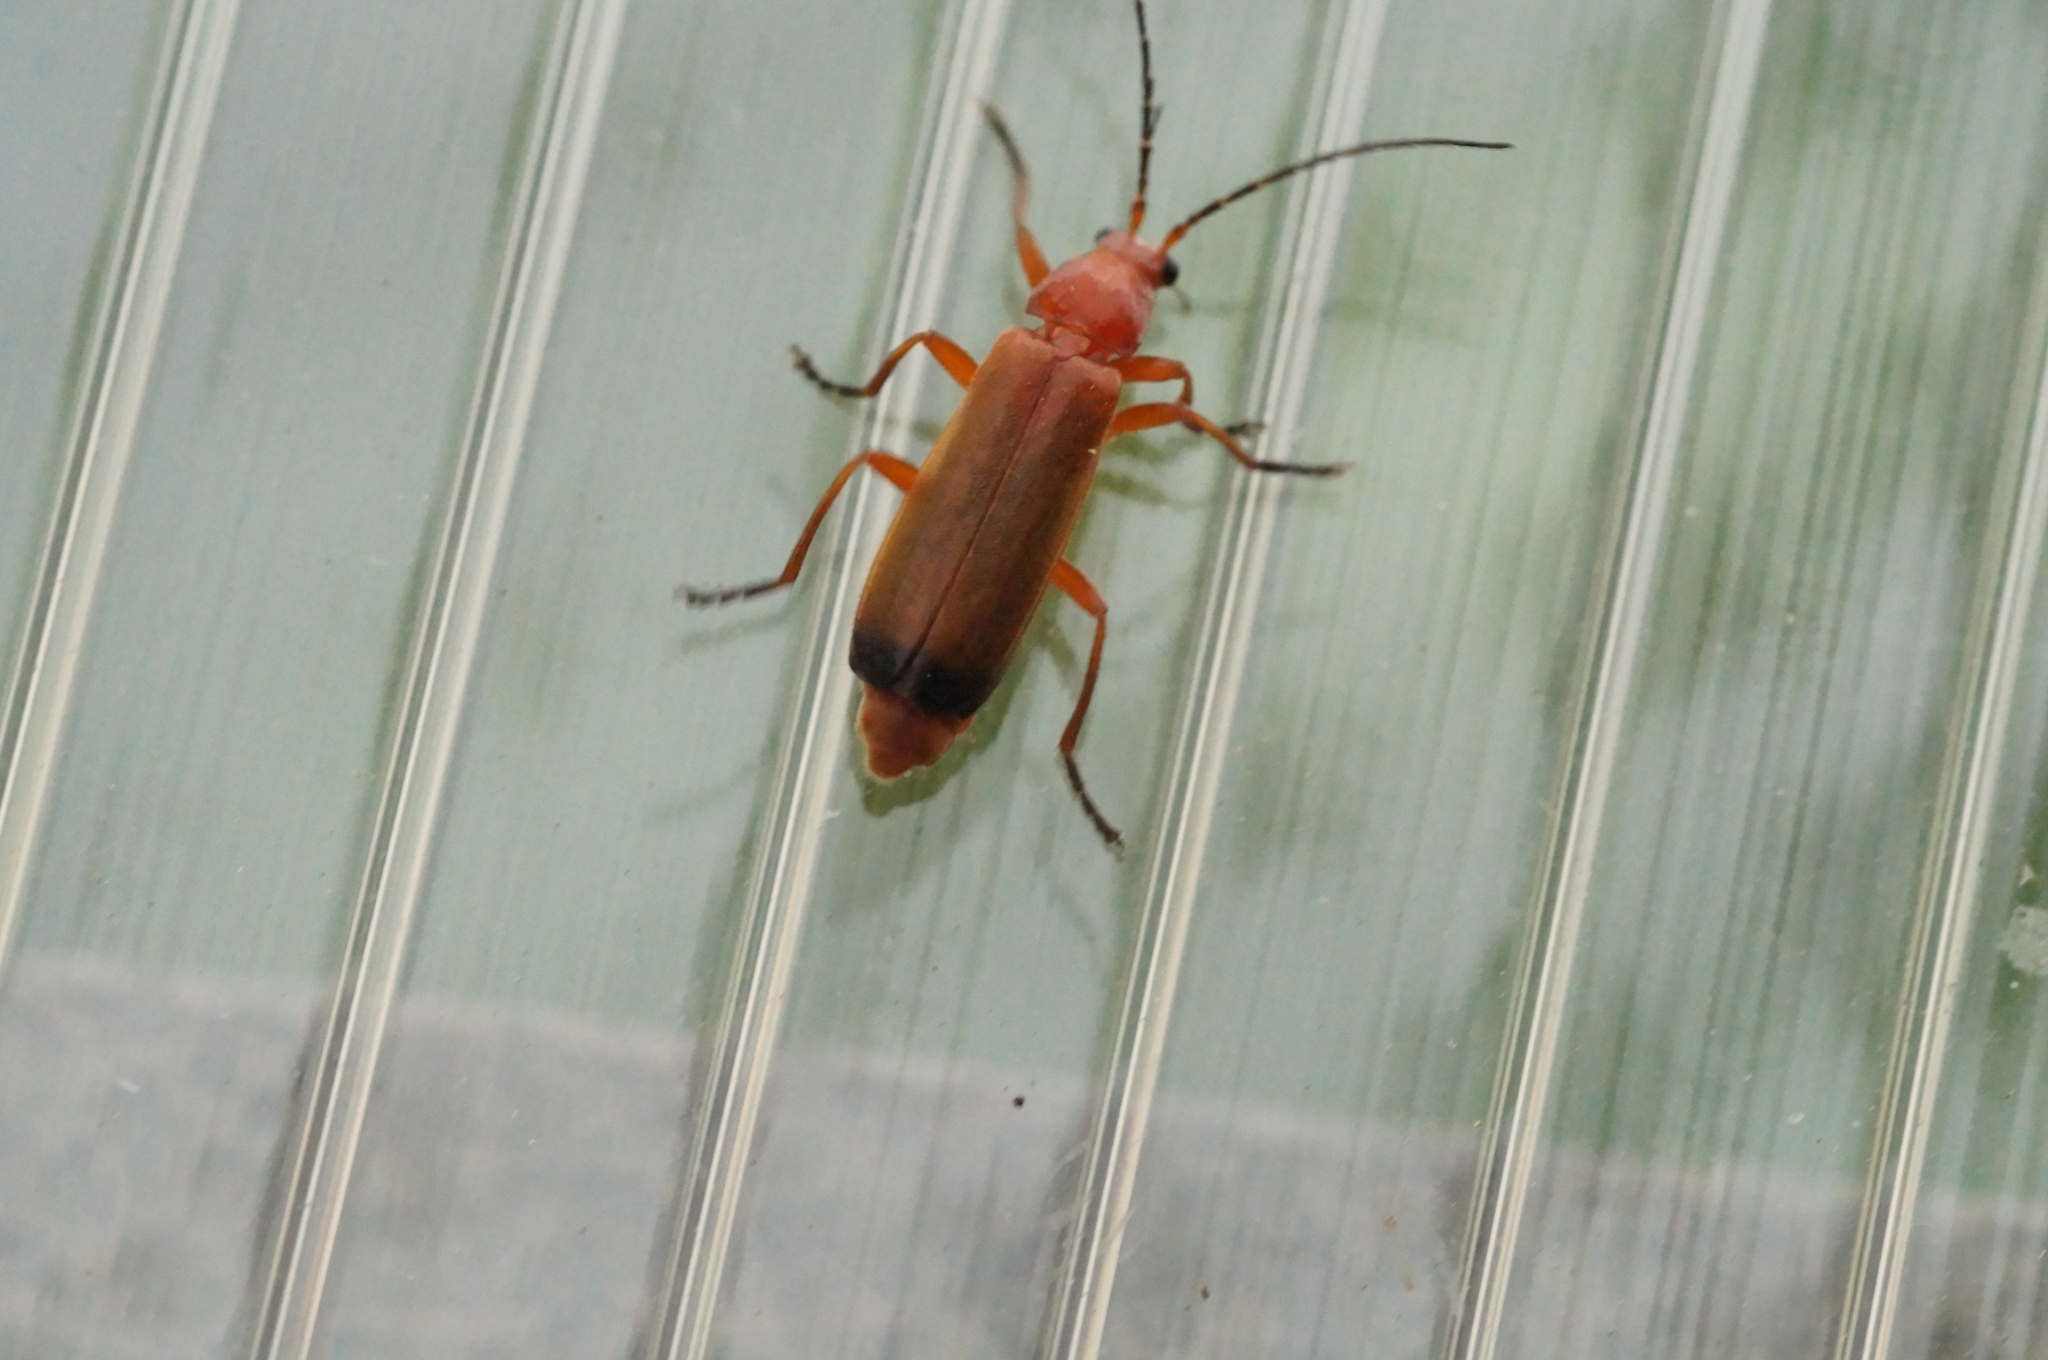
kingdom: Animalia
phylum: Arthropoda
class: Insecta
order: Coleoptera
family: Cantharidae
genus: Rhagonycha
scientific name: Rhagonycha fulva
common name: Common red soldier beetle
